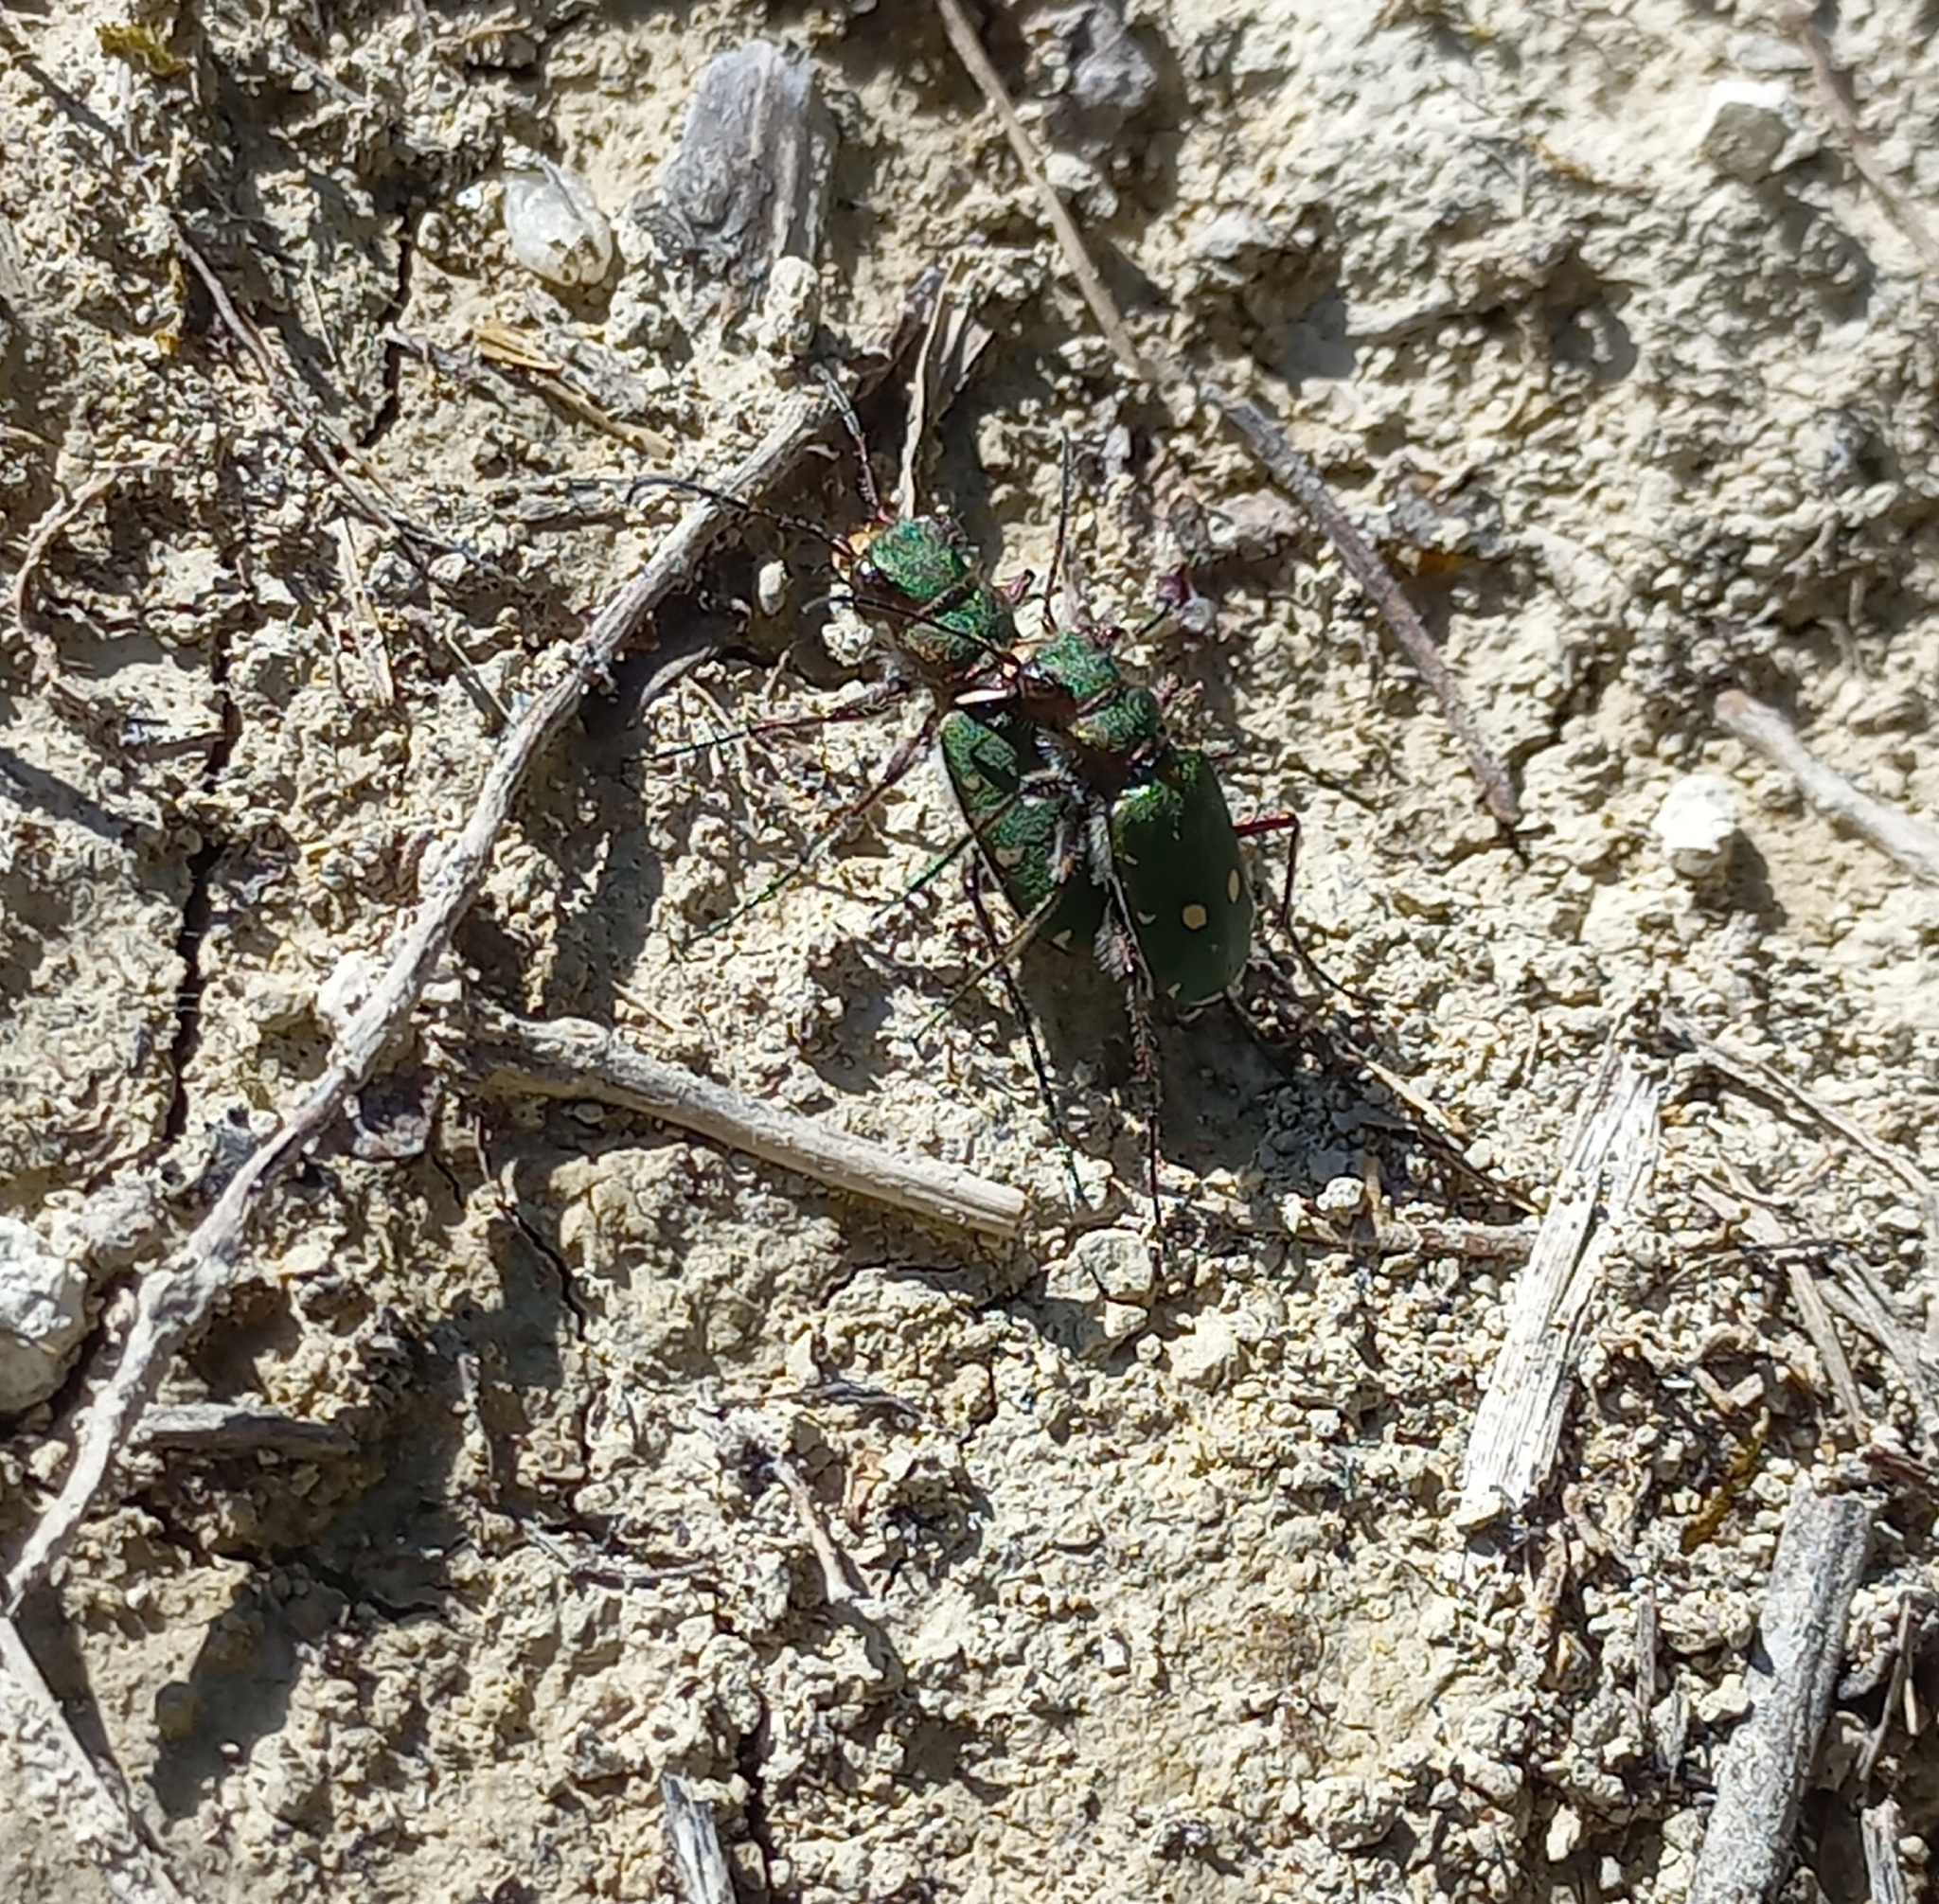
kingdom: Animalia
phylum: Arthropoda
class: Insecta
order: Coleoptera
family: Carabidae
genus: Cicindela
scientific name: Cicindela campestris
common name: Common tiger beetle
